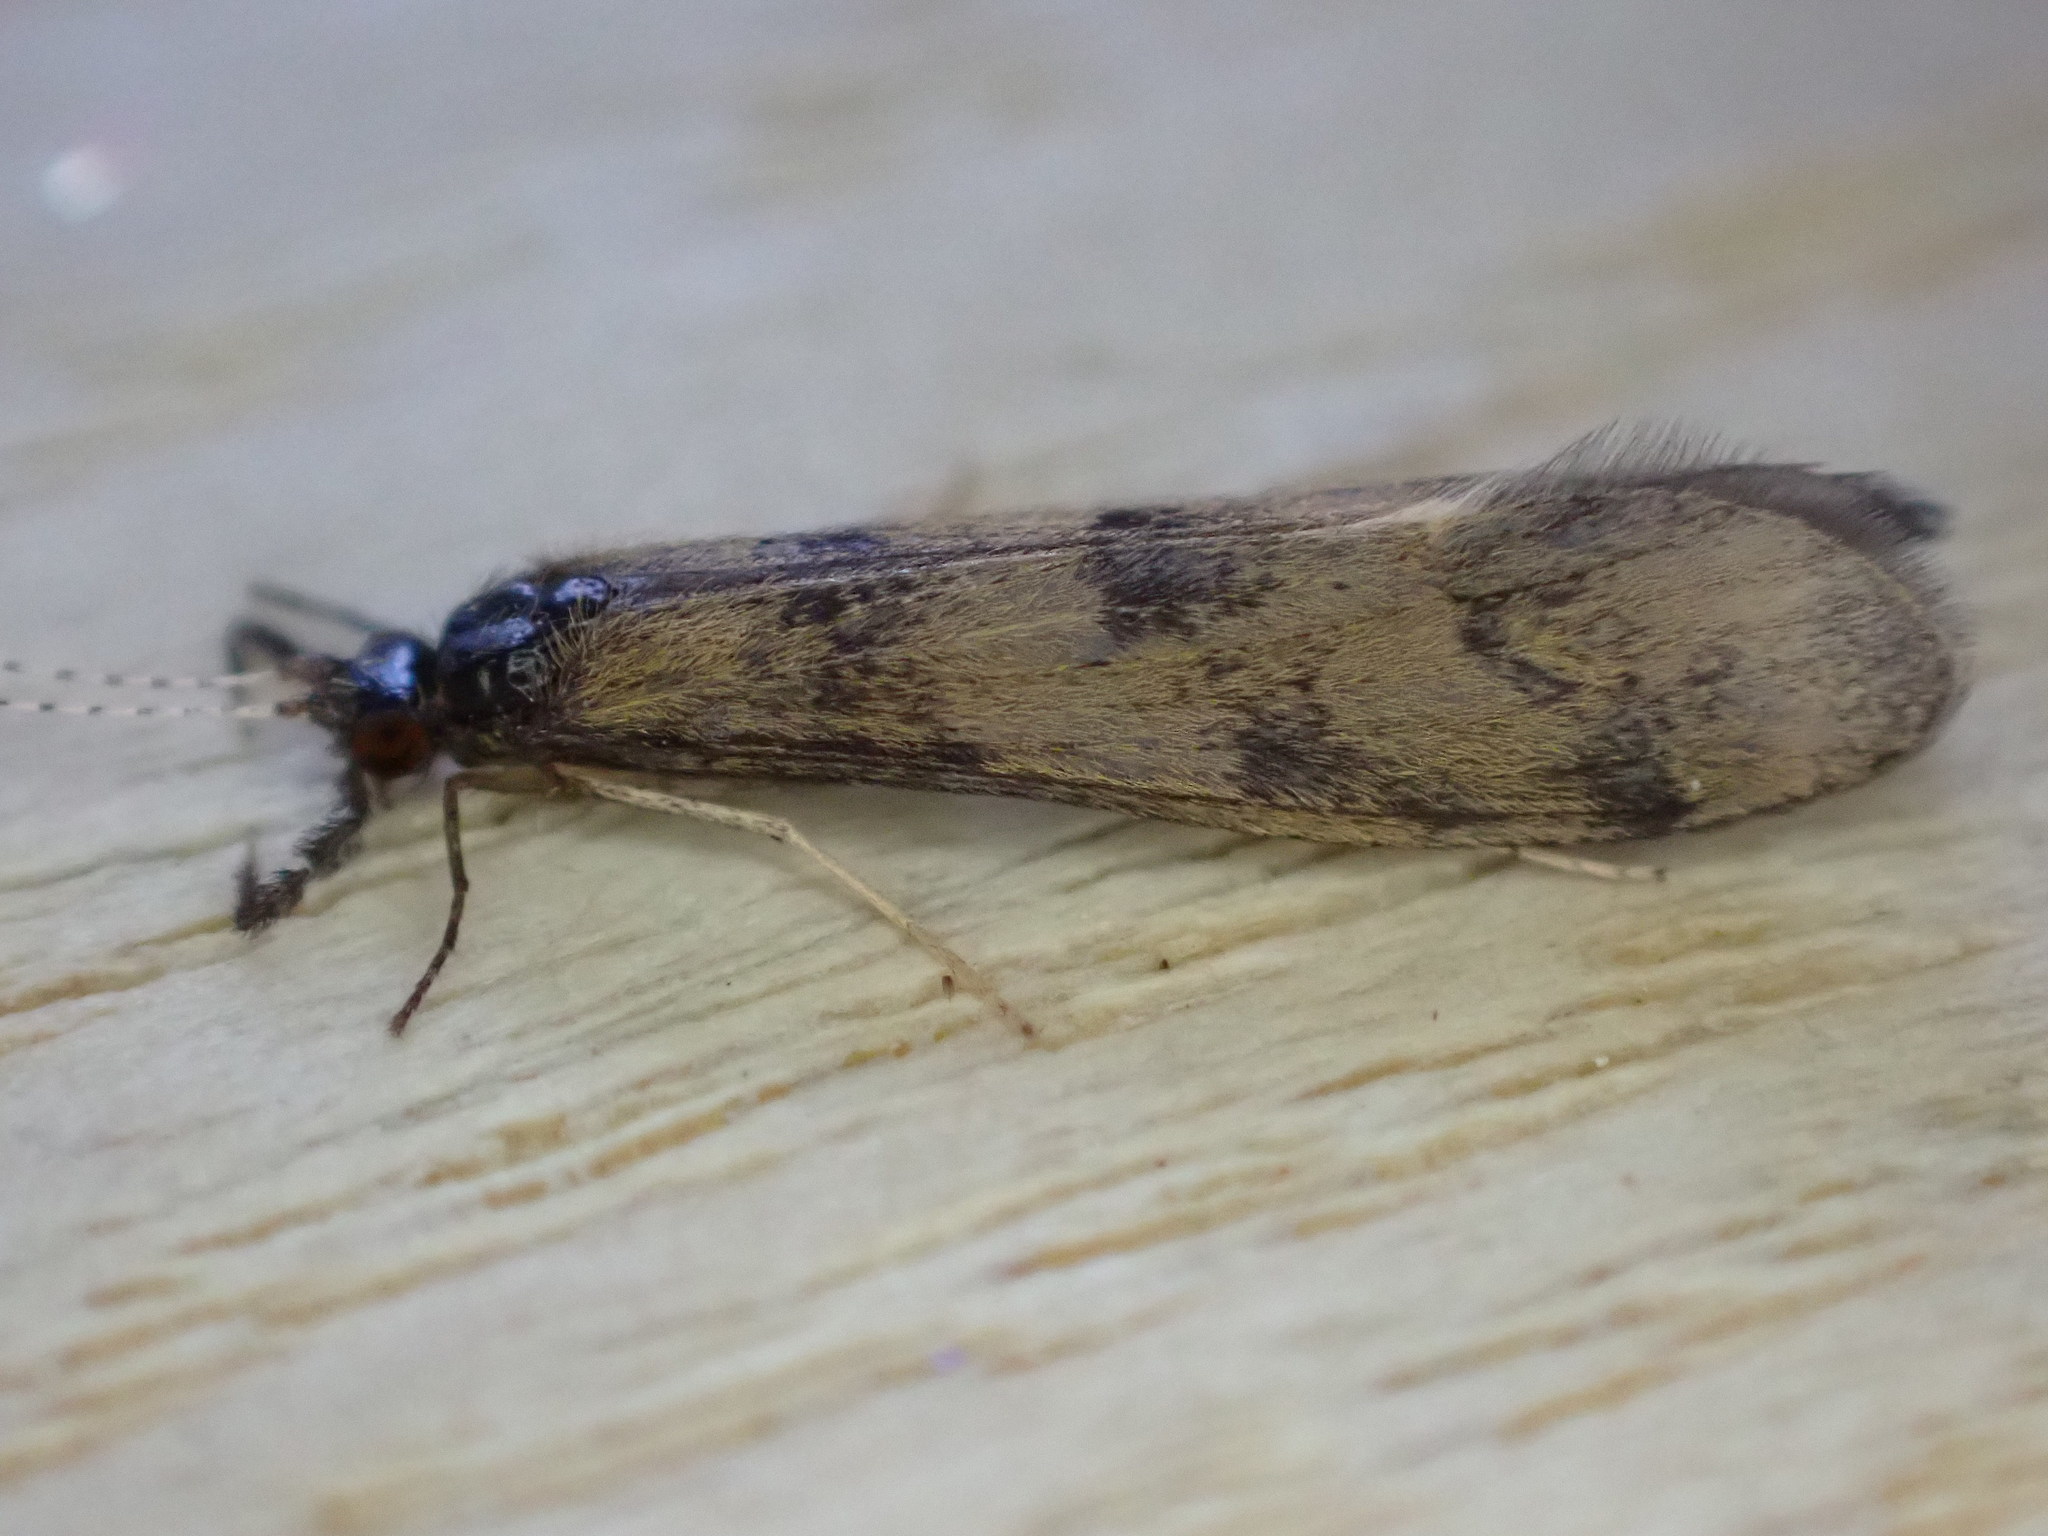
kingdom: Animalia
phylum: Arthropoda
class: Insecta
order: Trichoptera
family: Leptoceridae
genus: Mystacides
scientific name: Mystacides longicornis
